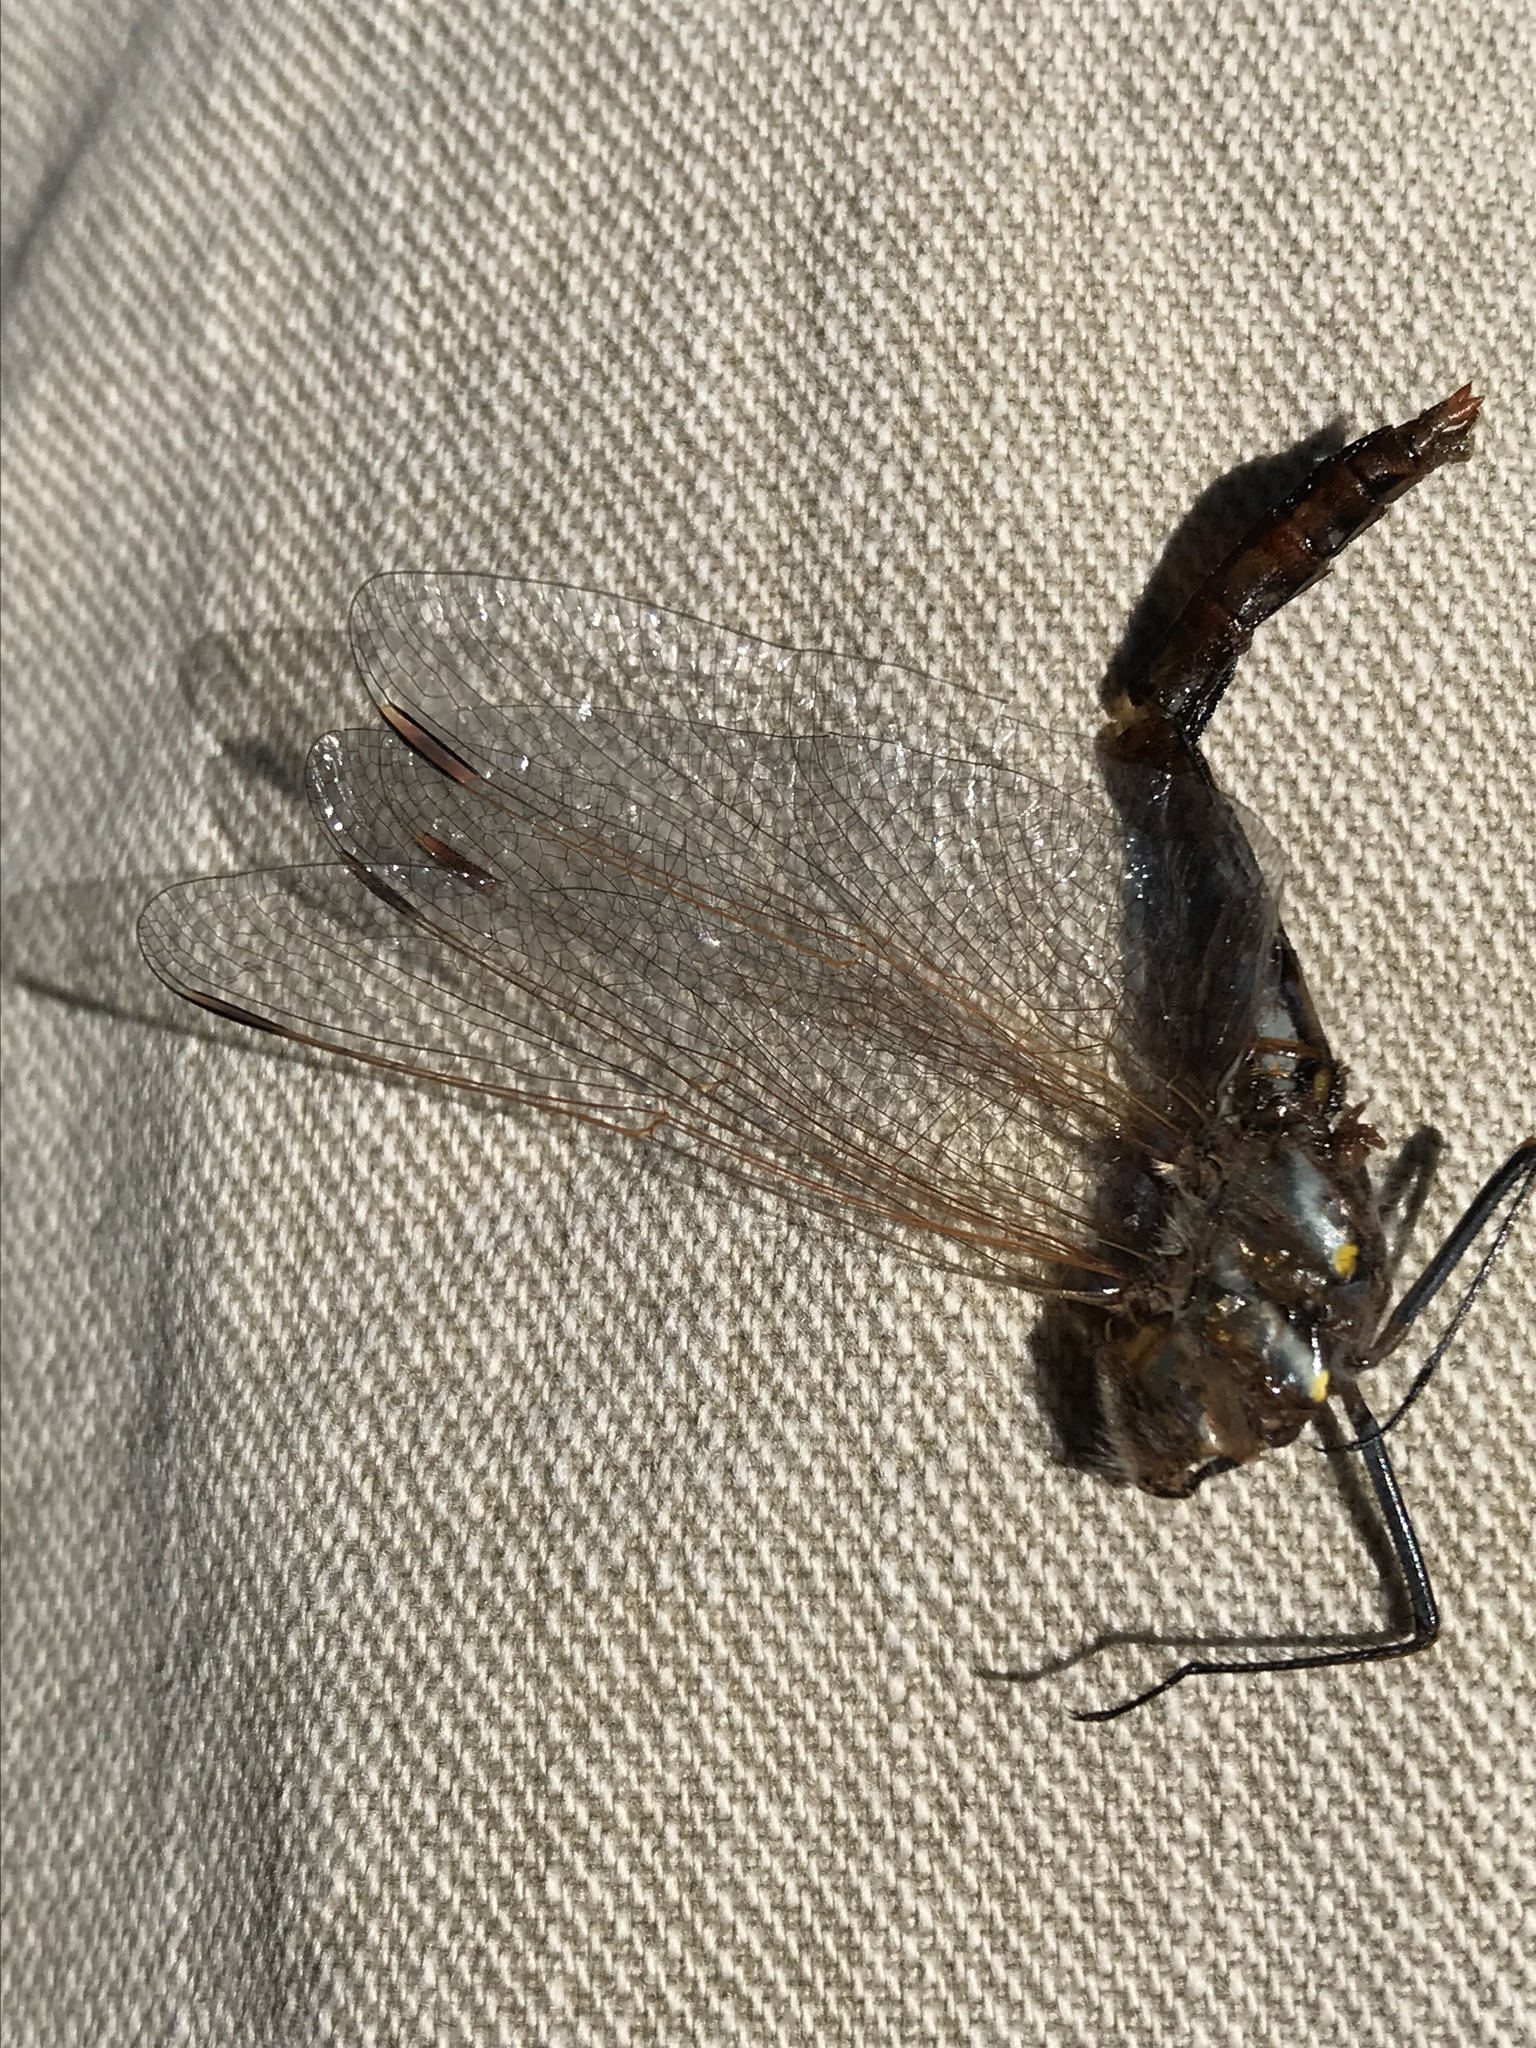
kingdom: Animalia
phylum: Arthropoda
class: Insecta
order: Odonata
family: Libellulidae
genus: Sympetrum
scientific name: Sympetrum corruptum
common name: Variegated meadowhawk
